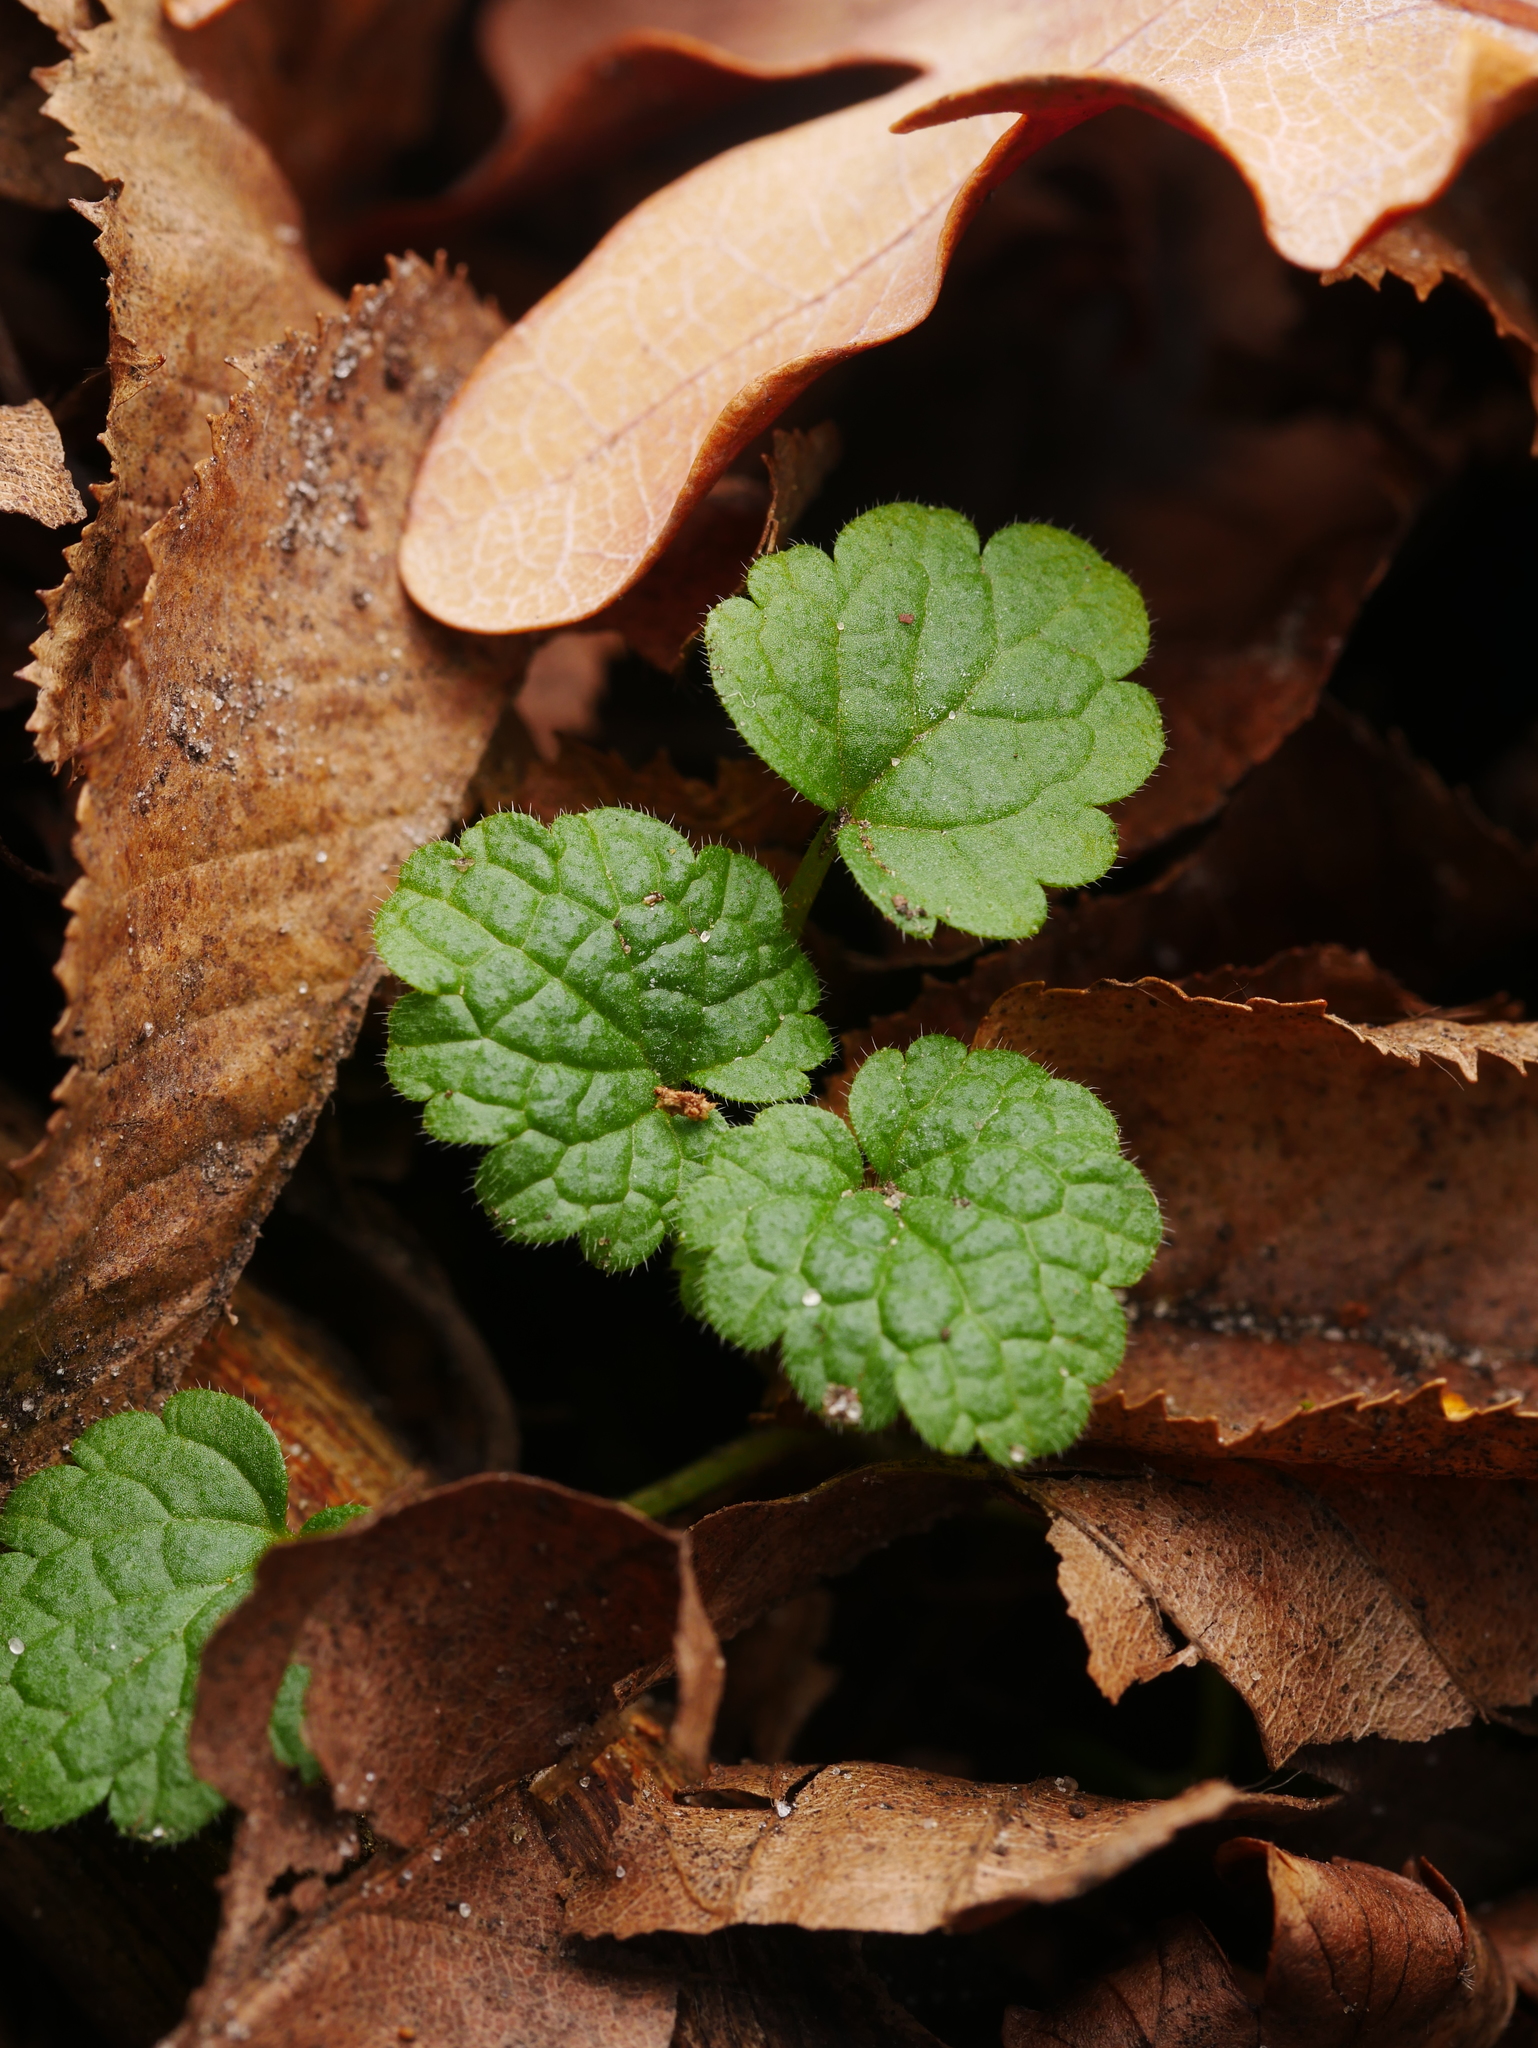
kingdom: Plantae
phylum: Tracheophyta
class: Magnoliopsida
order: Lamiales
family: Lamiaceae
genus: Lamium
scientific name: Lamium purpureum
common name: Red dead-nettle
